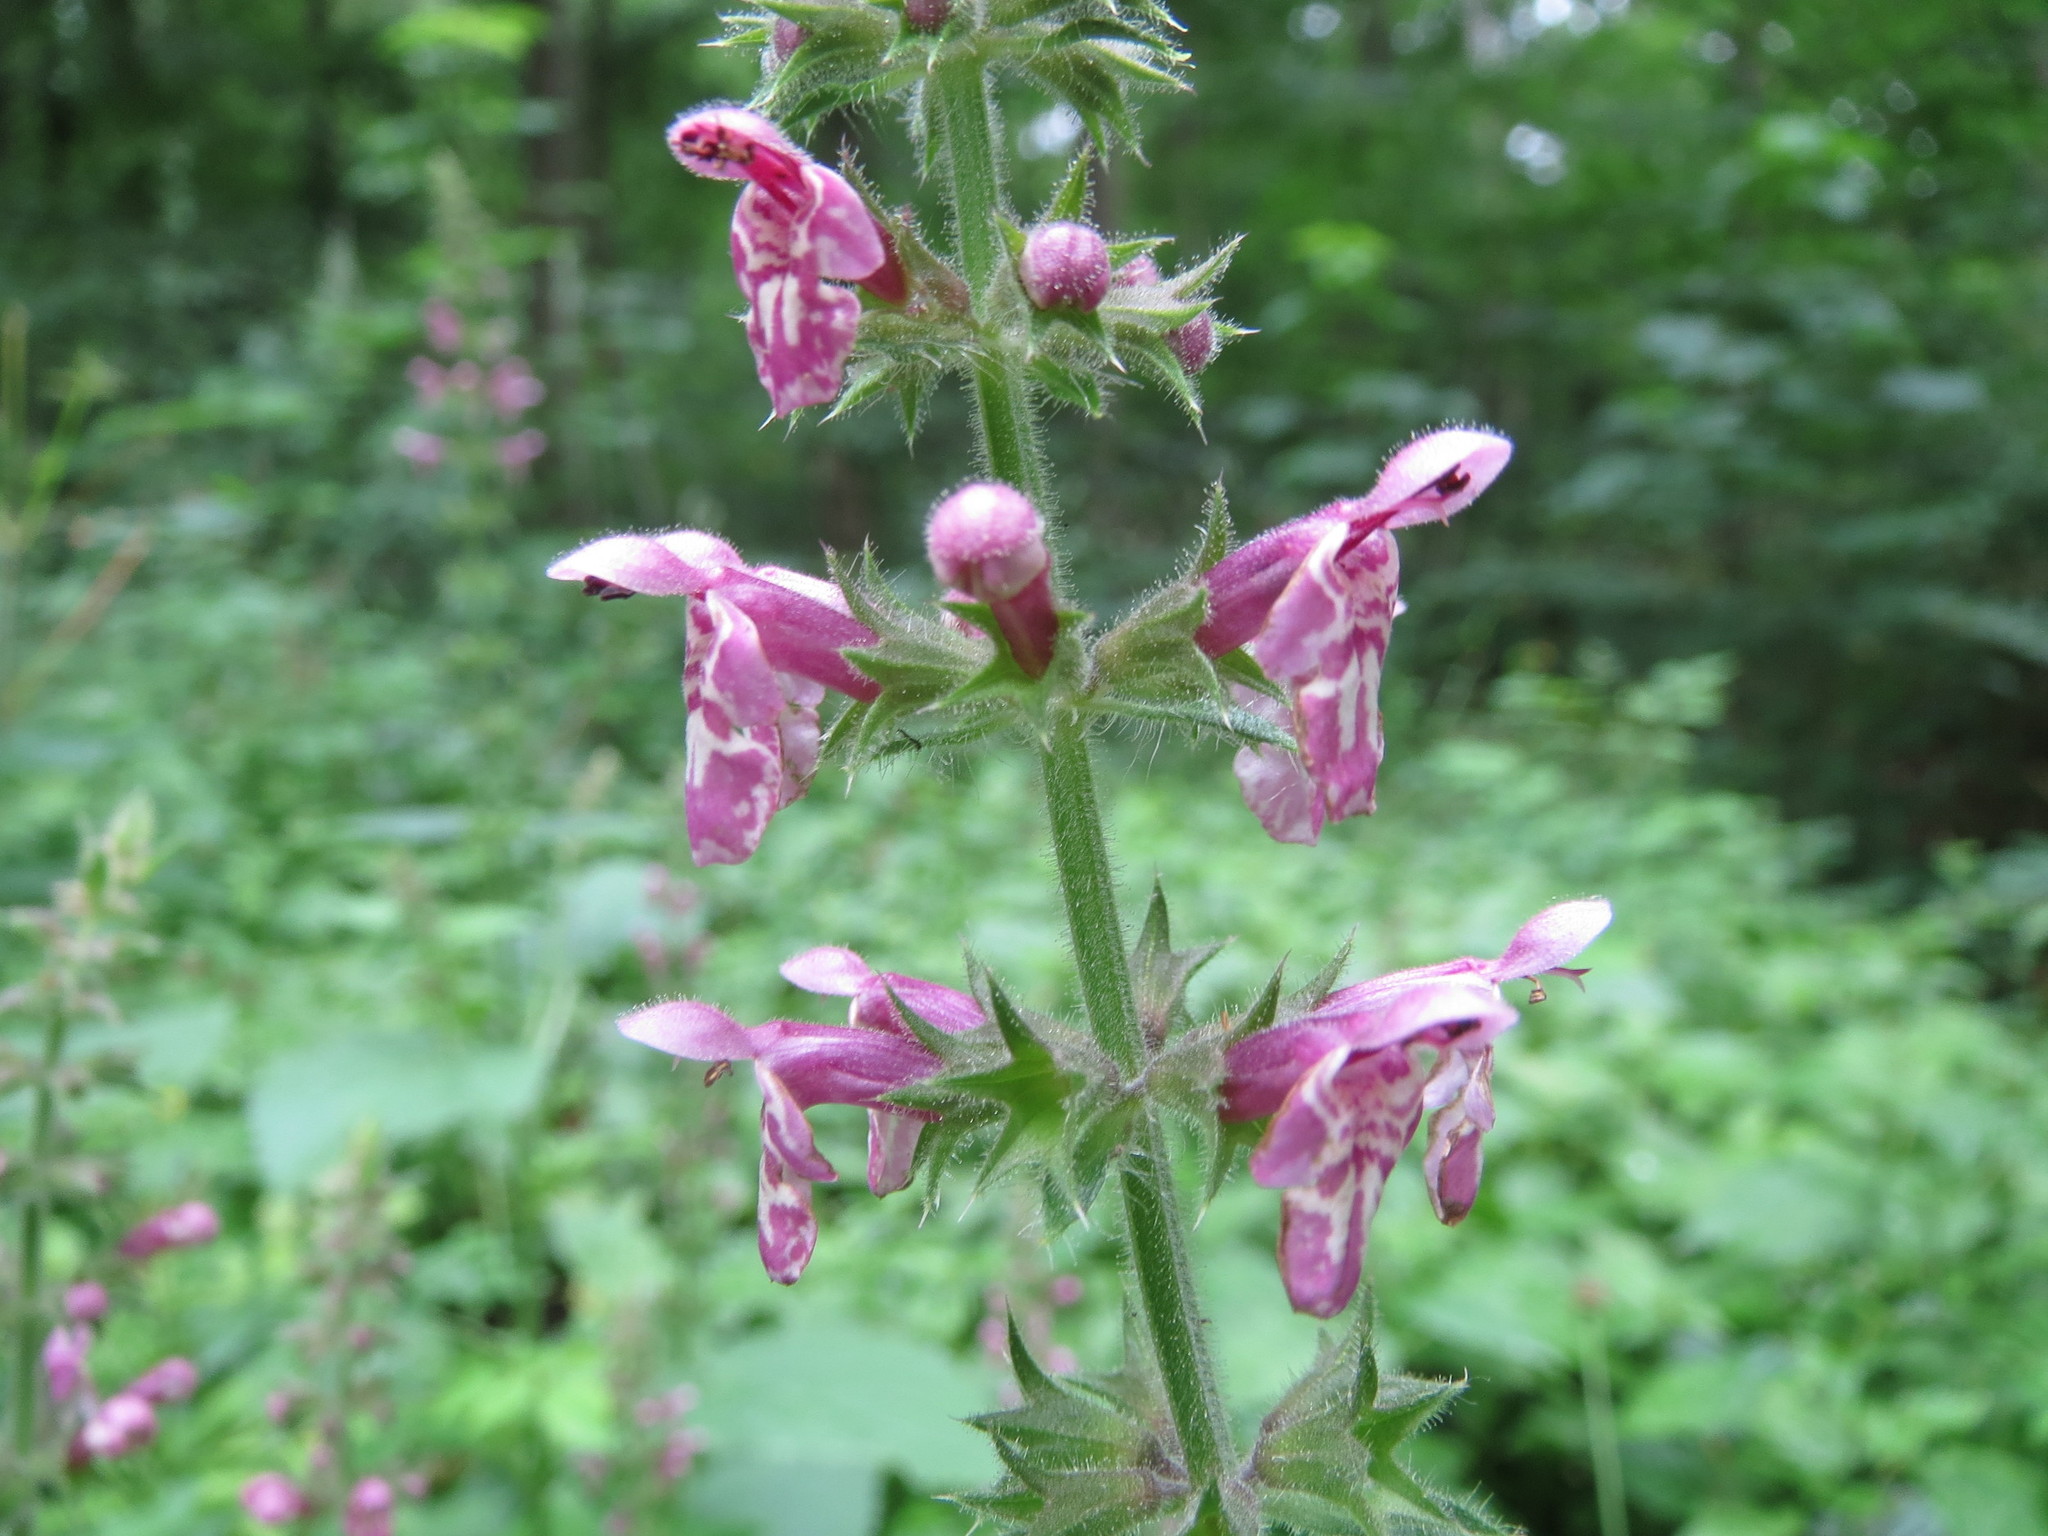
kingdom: Plantae
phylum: Tracheophyta
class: Magnoliopsida
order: Lamiales
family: Lamiaceae
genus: Stachys
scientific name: Stachys sylvatica
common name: Hedge woundwort
